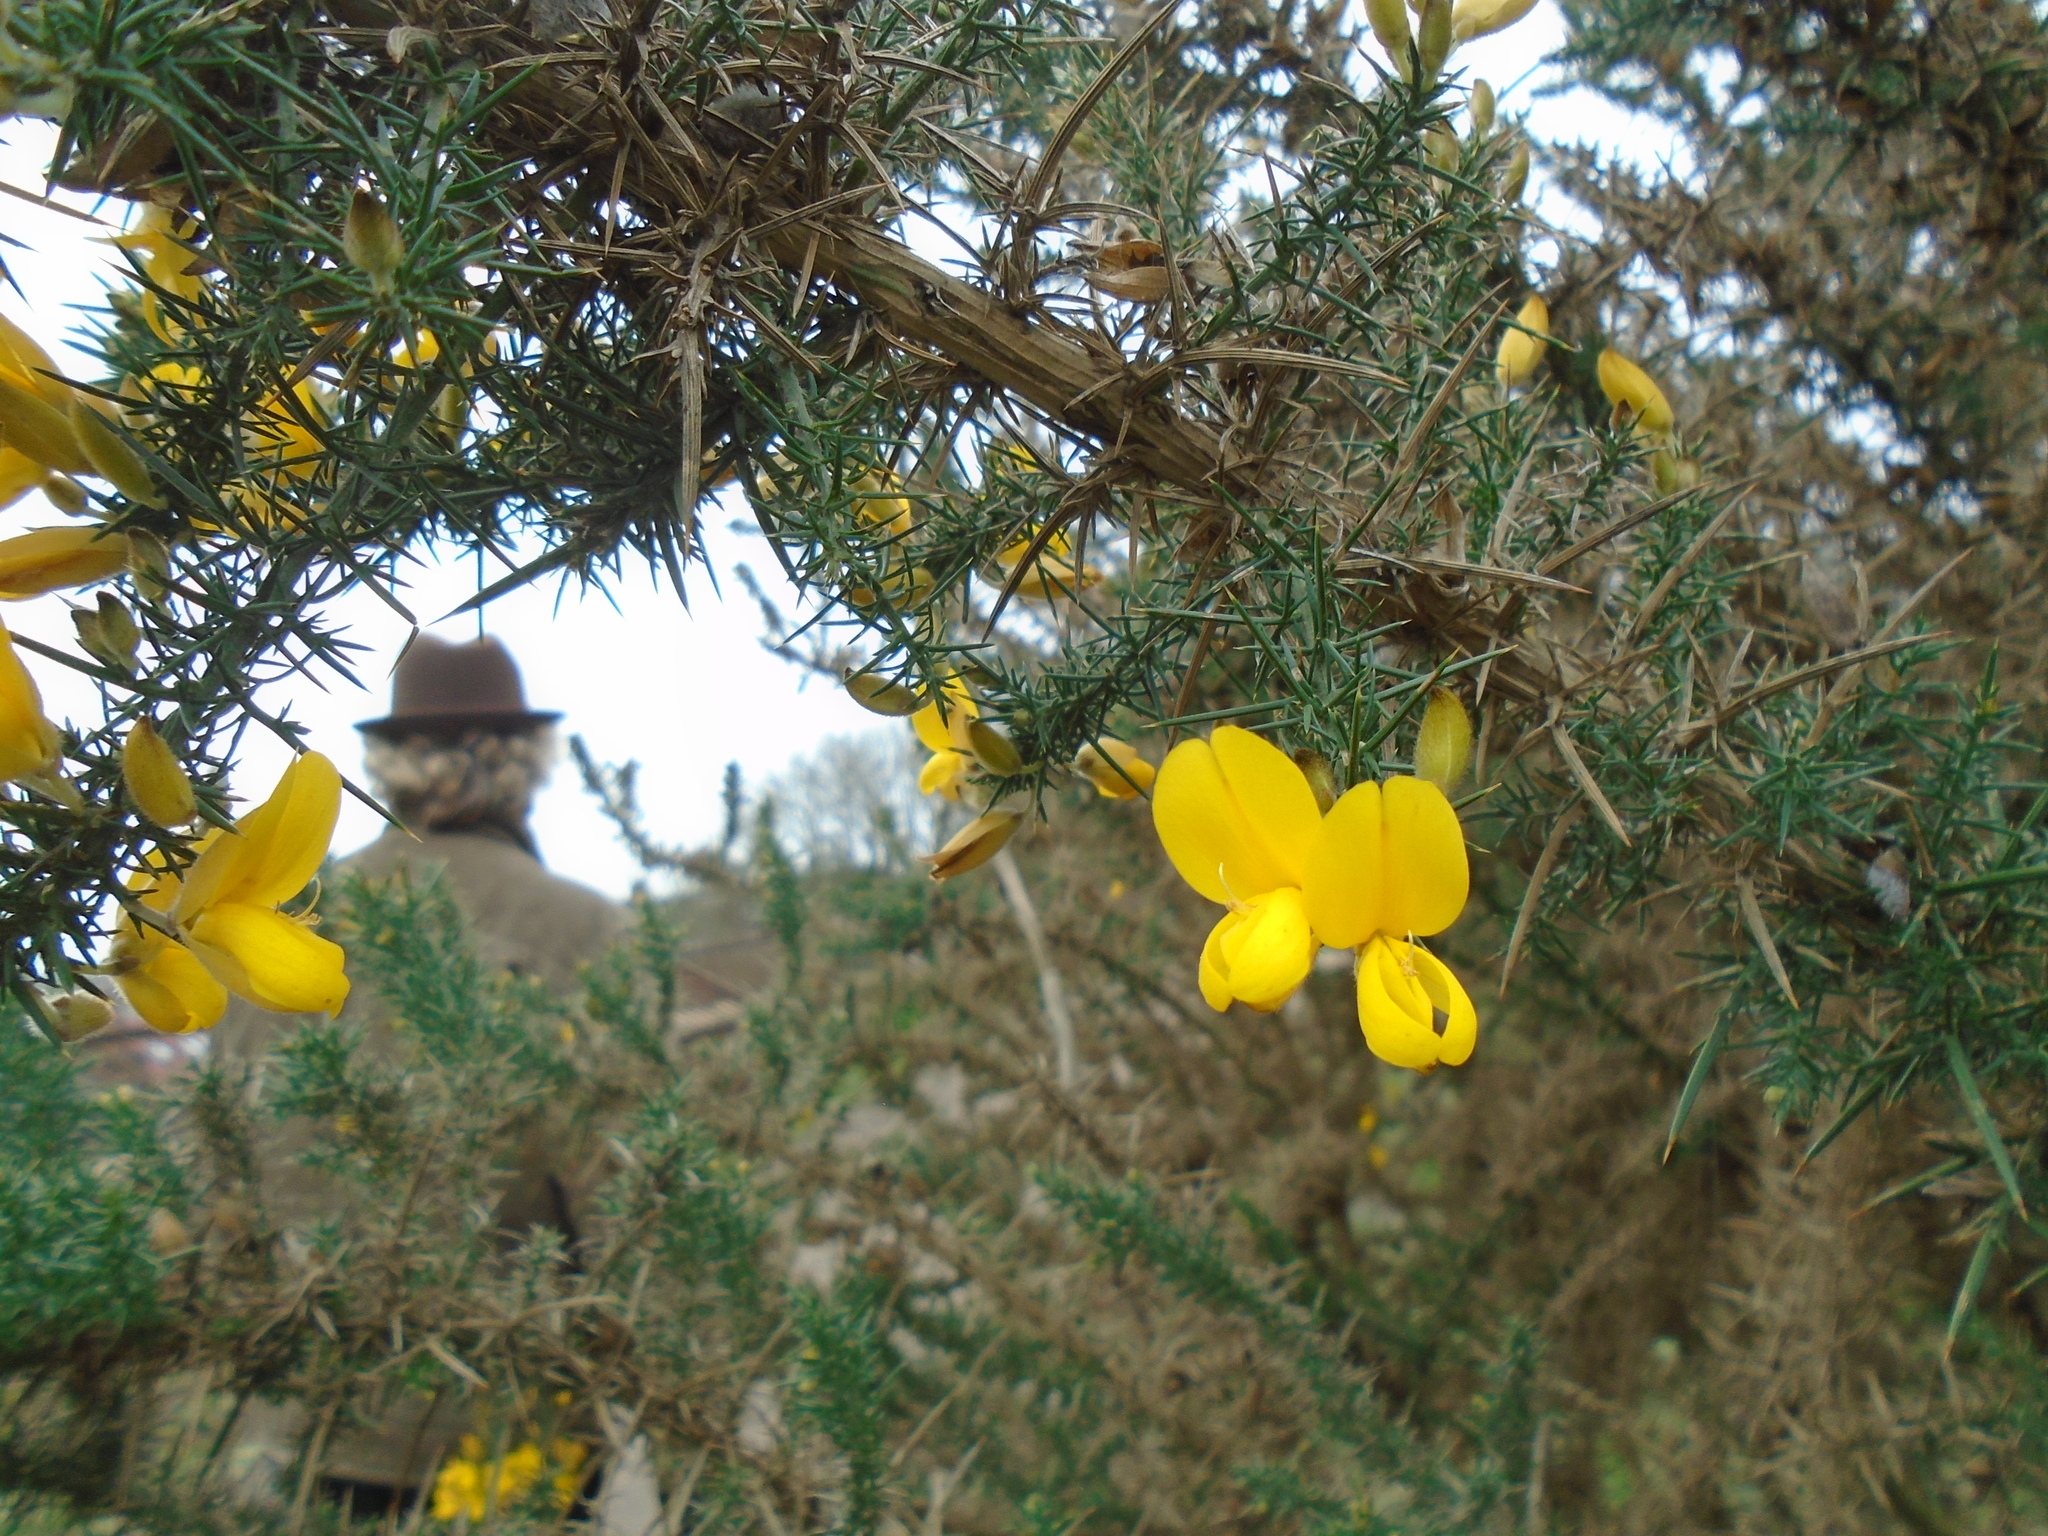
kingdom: Plantae
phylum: Tracheophyta
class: Magnoliopsida
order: Fabales
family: Fabaceae
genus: Ulex
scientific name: Ulex europaeus
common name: Common gorse
